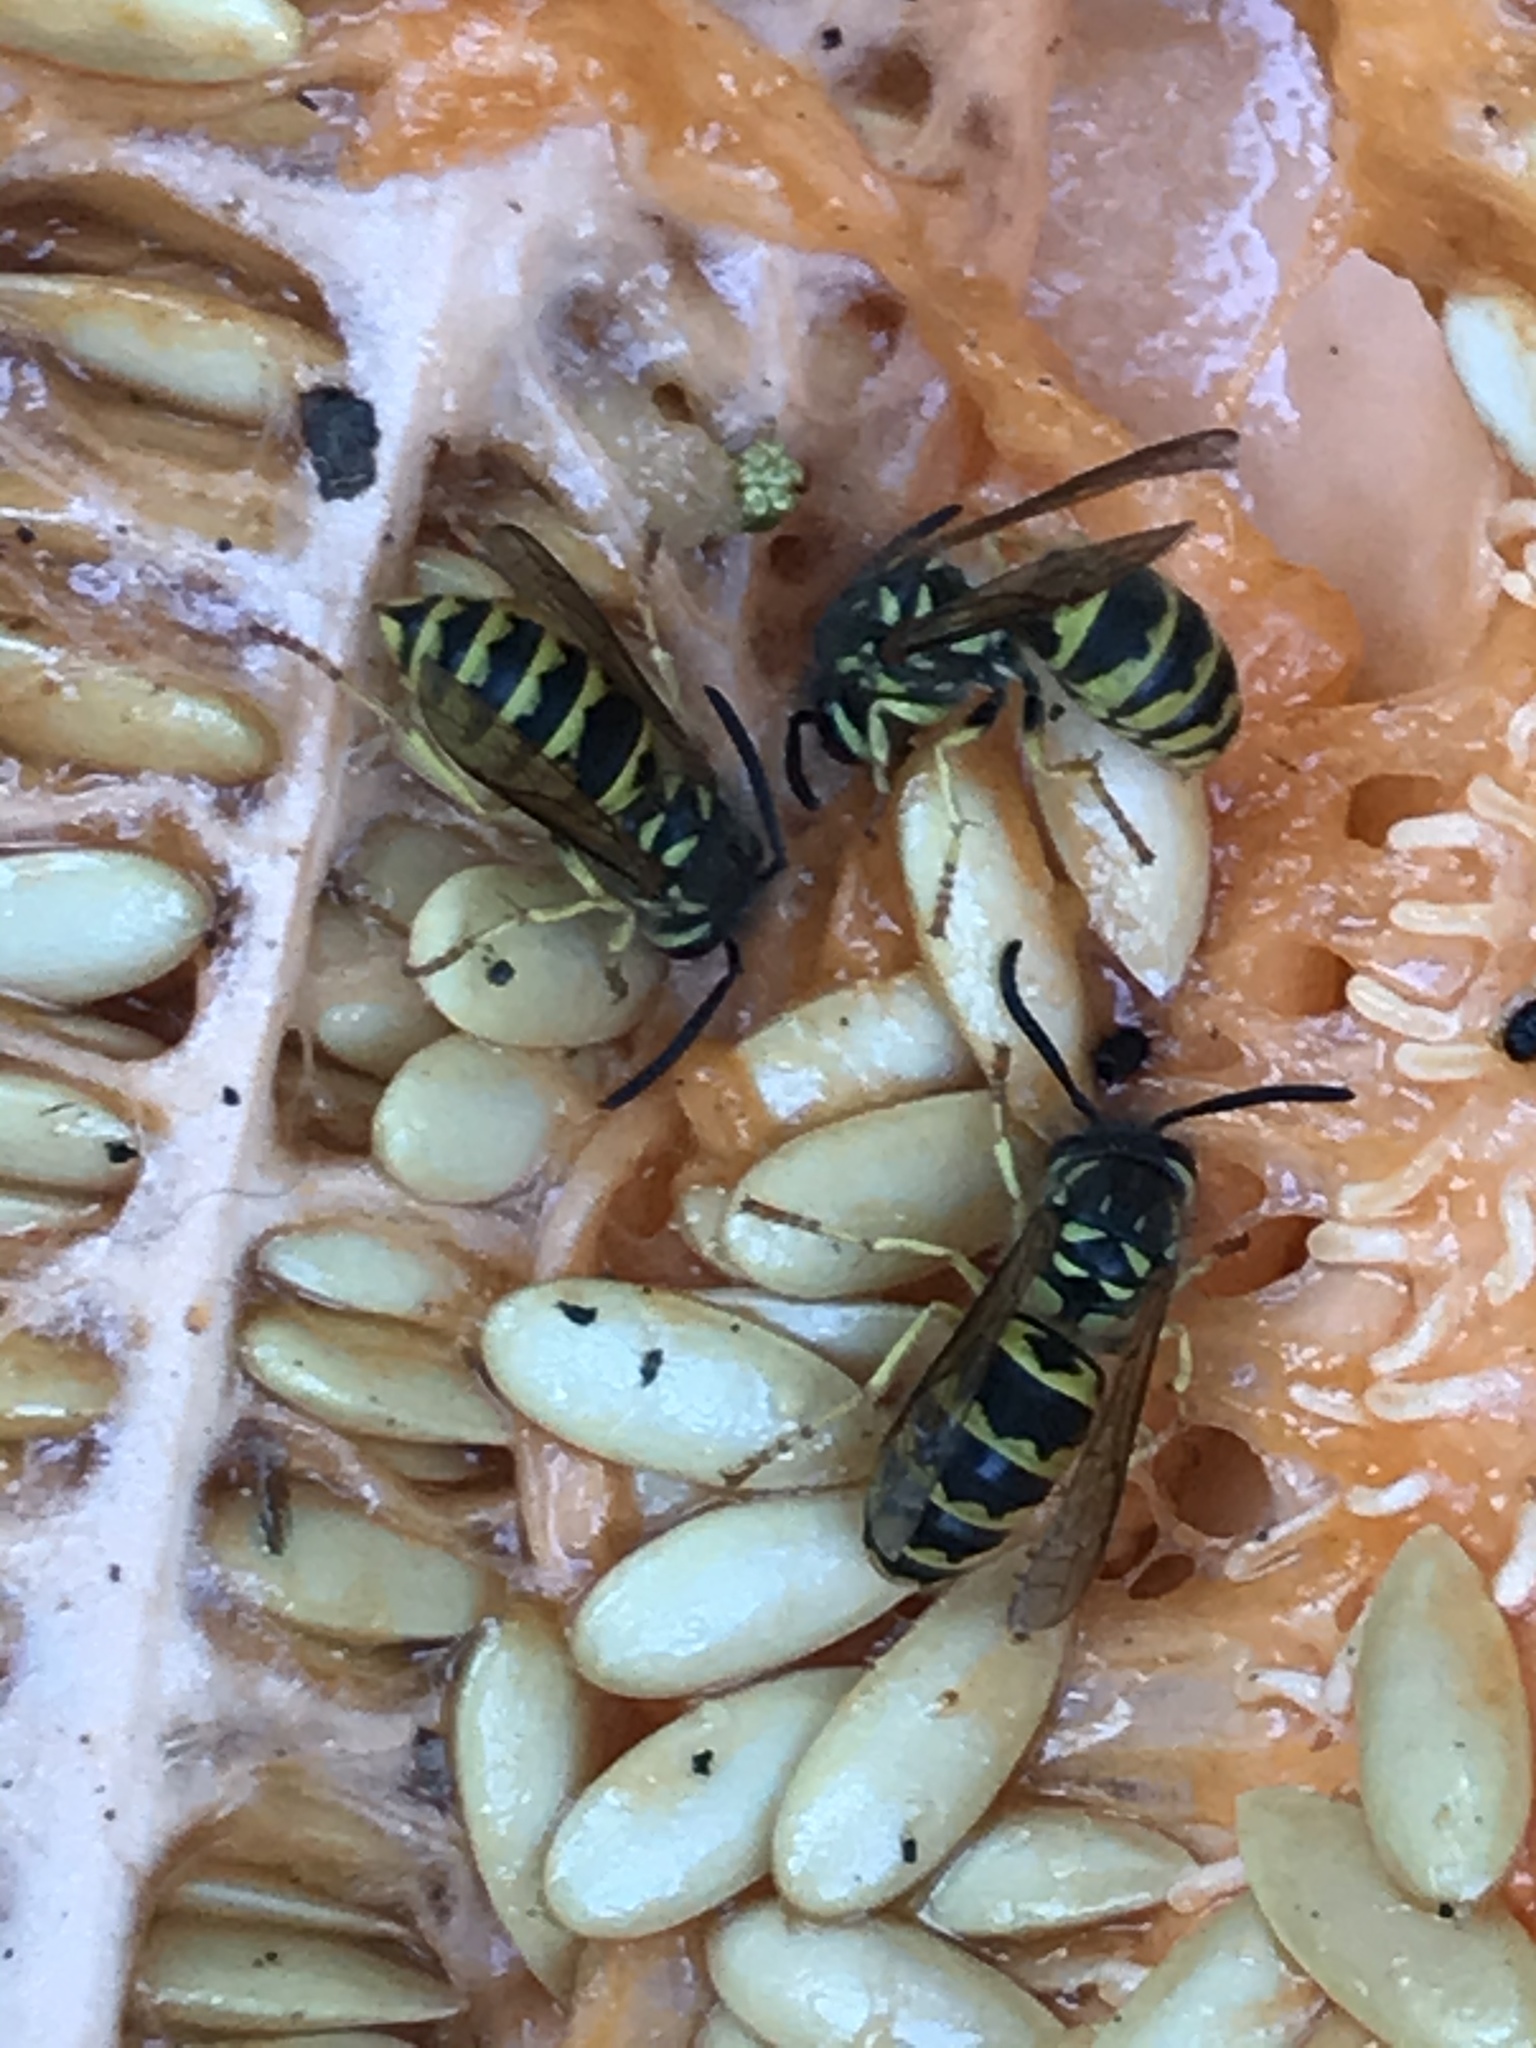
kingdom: Animalia
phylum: Arthropoda
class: Insecta
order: Hymenoptera
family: Vespidae
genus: Vespula
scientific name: Vespula flavopilosa
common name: Downy yellowjacket
